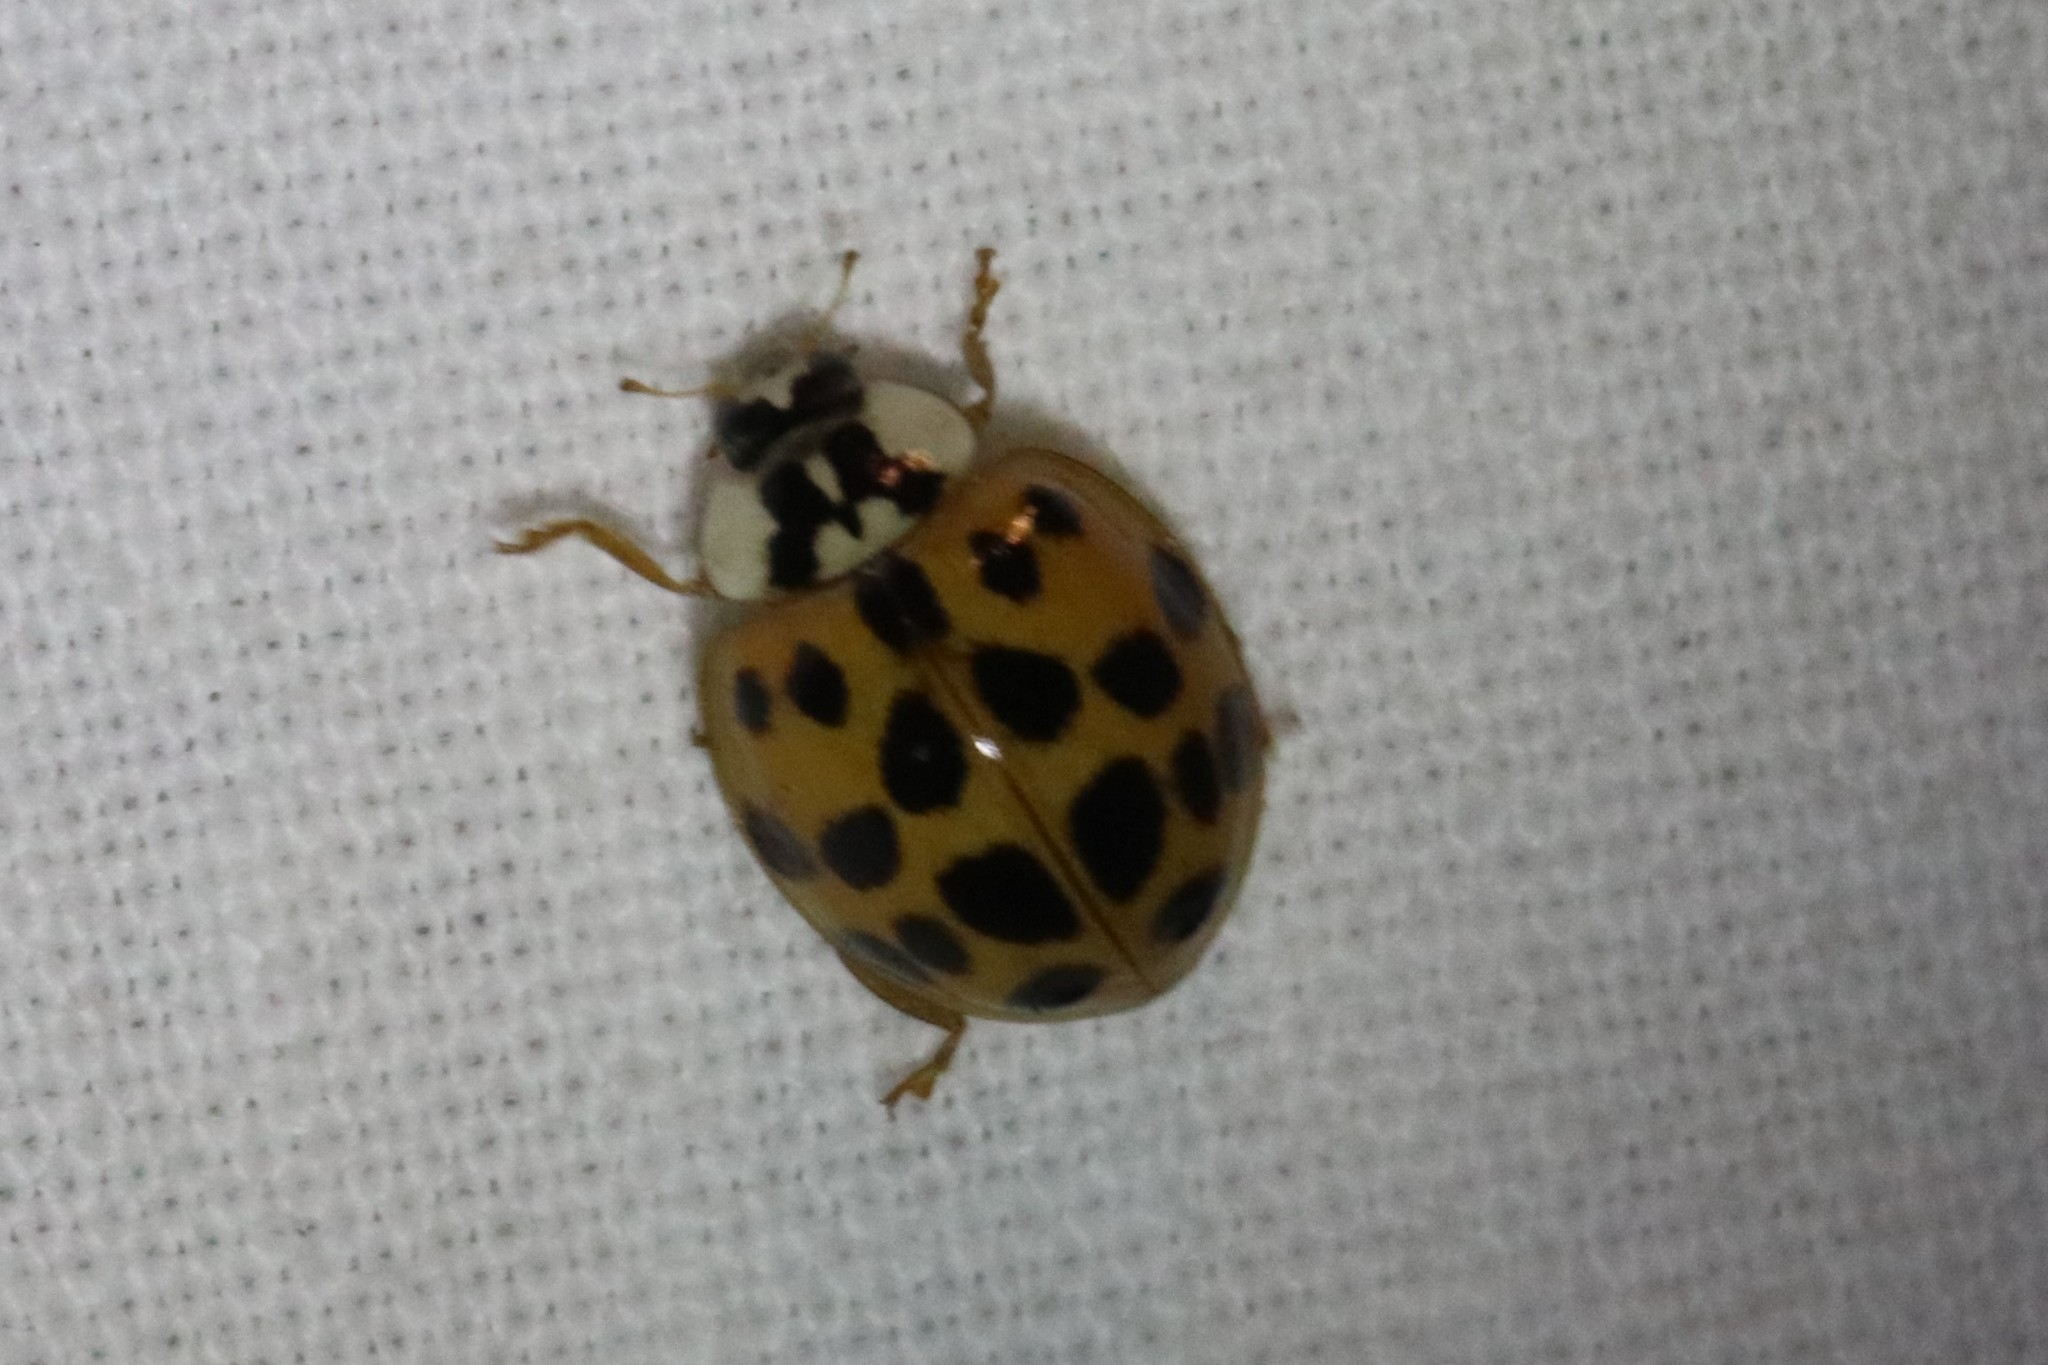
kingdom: Animalia
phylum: Arthropoda
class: Insecta
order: Coleoptera
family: Coccinellidae
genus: Harmonia
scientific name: Harmonia axyridis
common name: Harlequin ladybird
